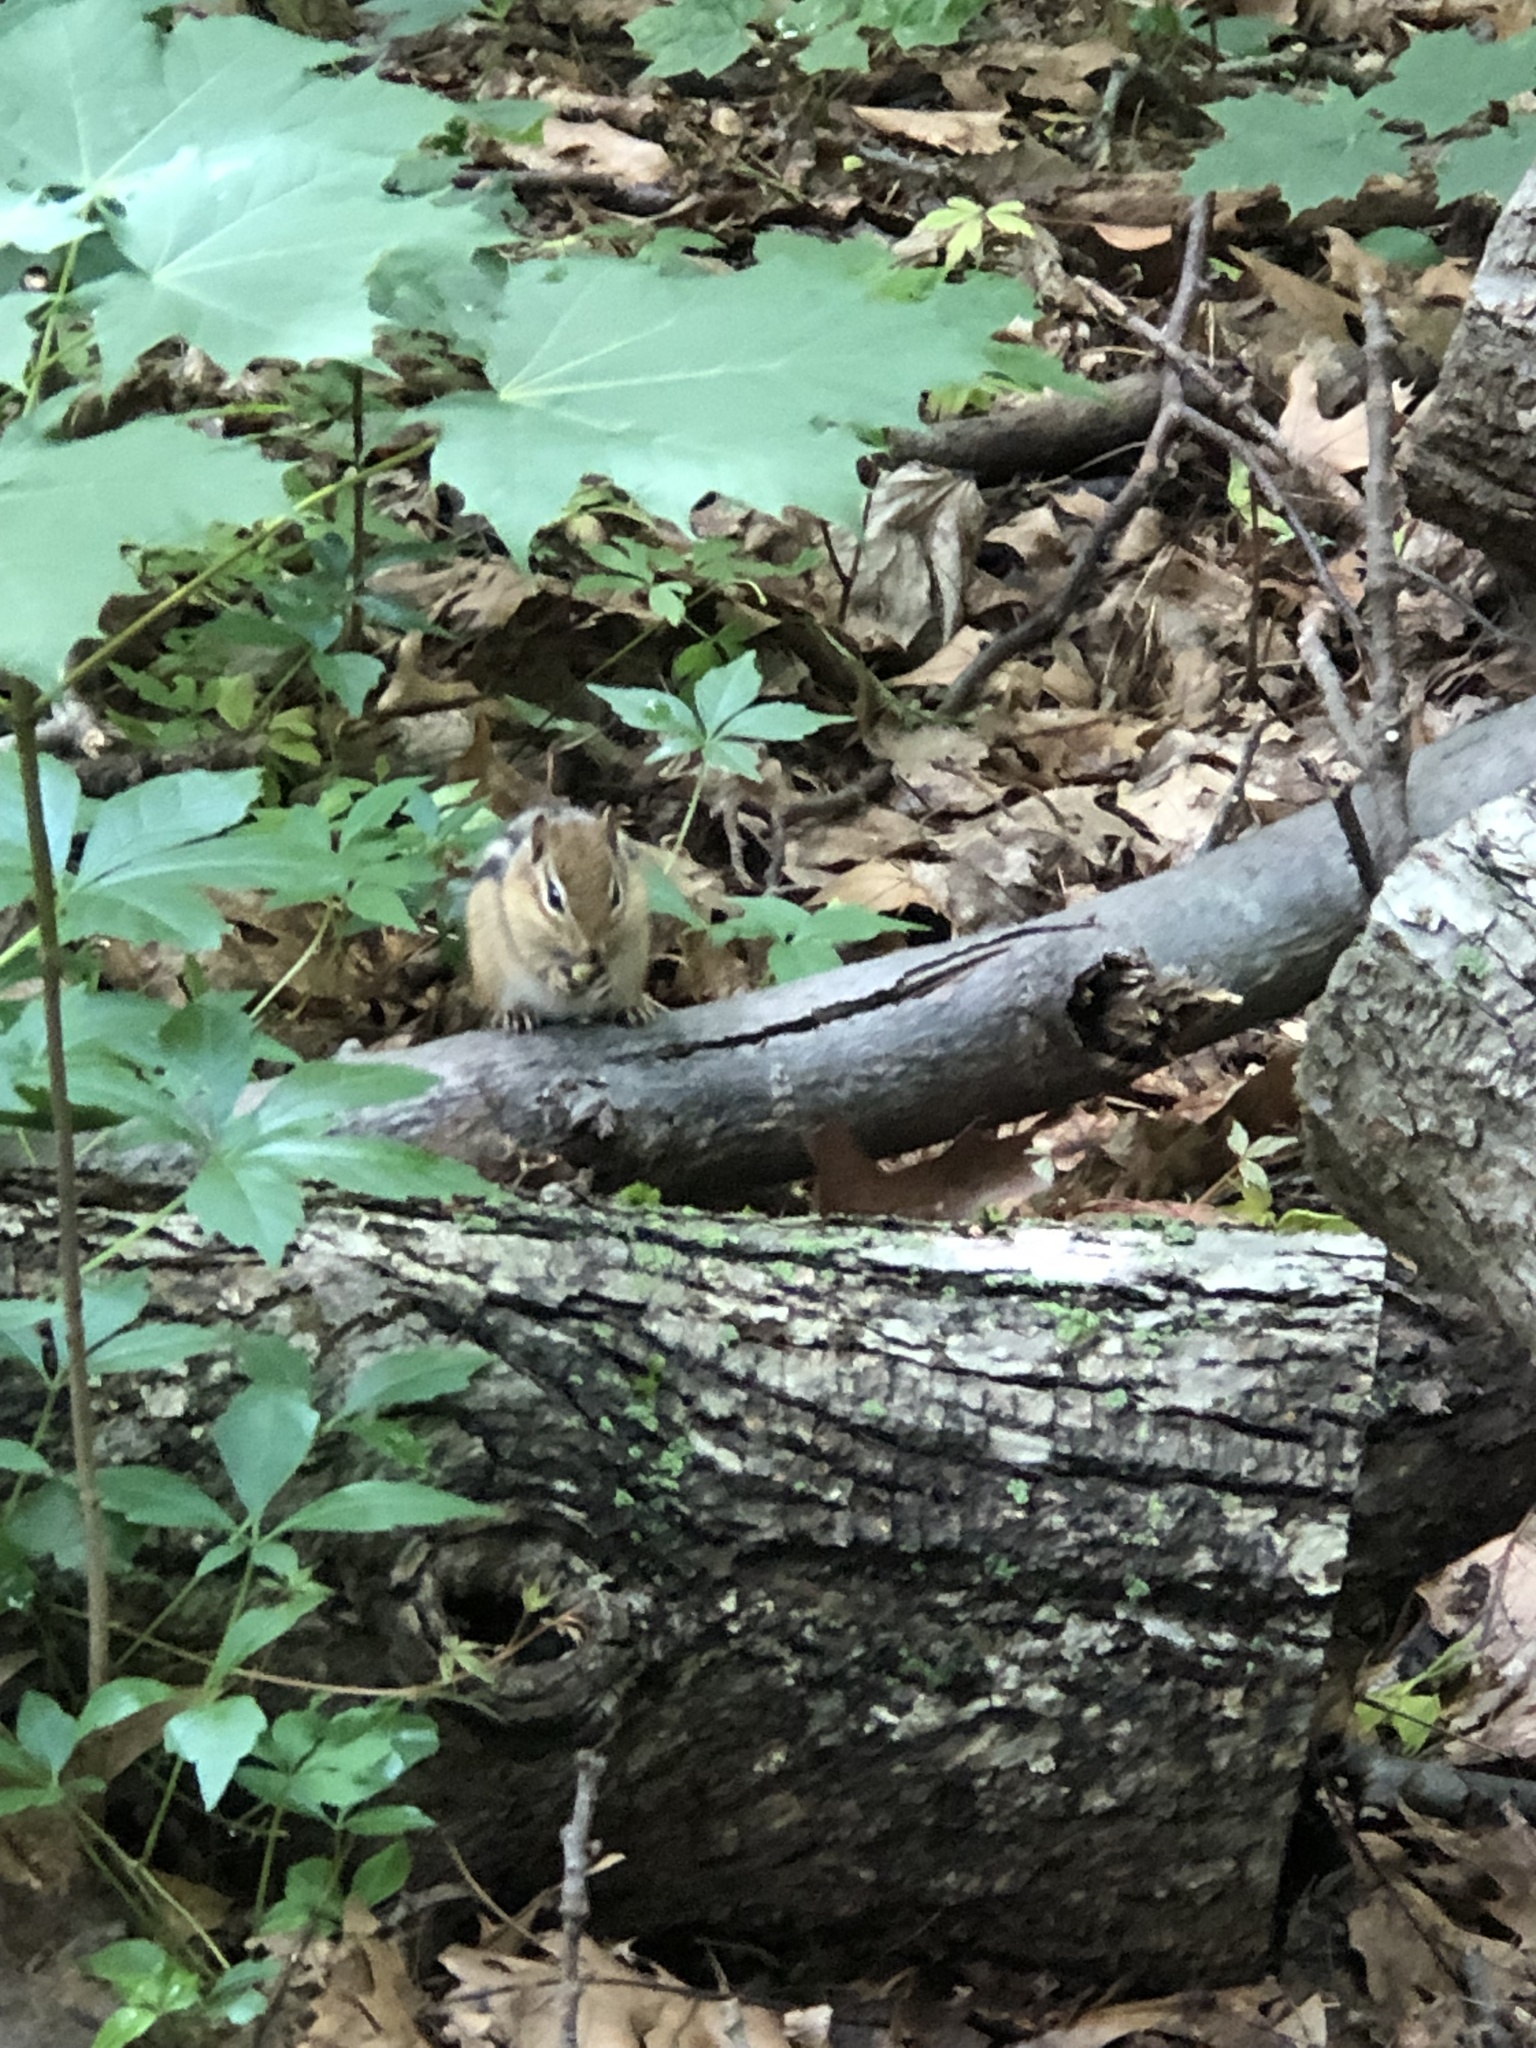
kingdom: Animalia
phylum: Chordata
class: Mammalia
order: Rodentia
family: Sciuridae
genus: Tamias
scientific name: Tamias striatus
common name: Eastern chipmunk
